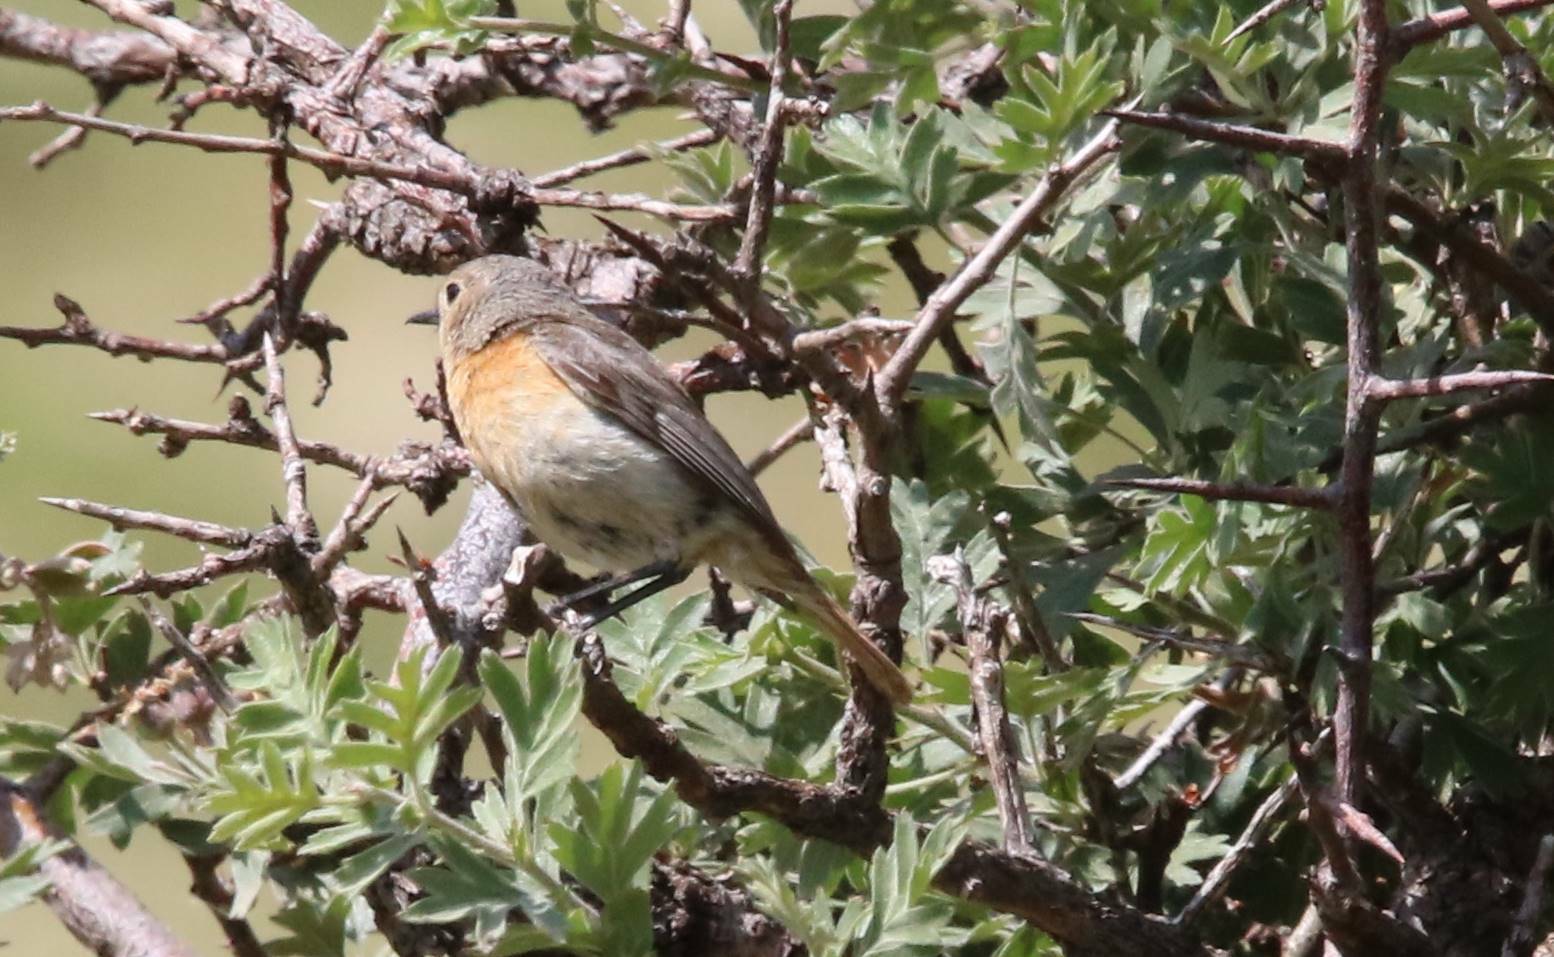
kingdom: Animalia
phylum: Chordata
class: Aves
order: Passeriformes
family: Muscicapidae
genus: Phoenicurus
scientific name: Phoenicurus phoenicurus
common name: Common redstart
